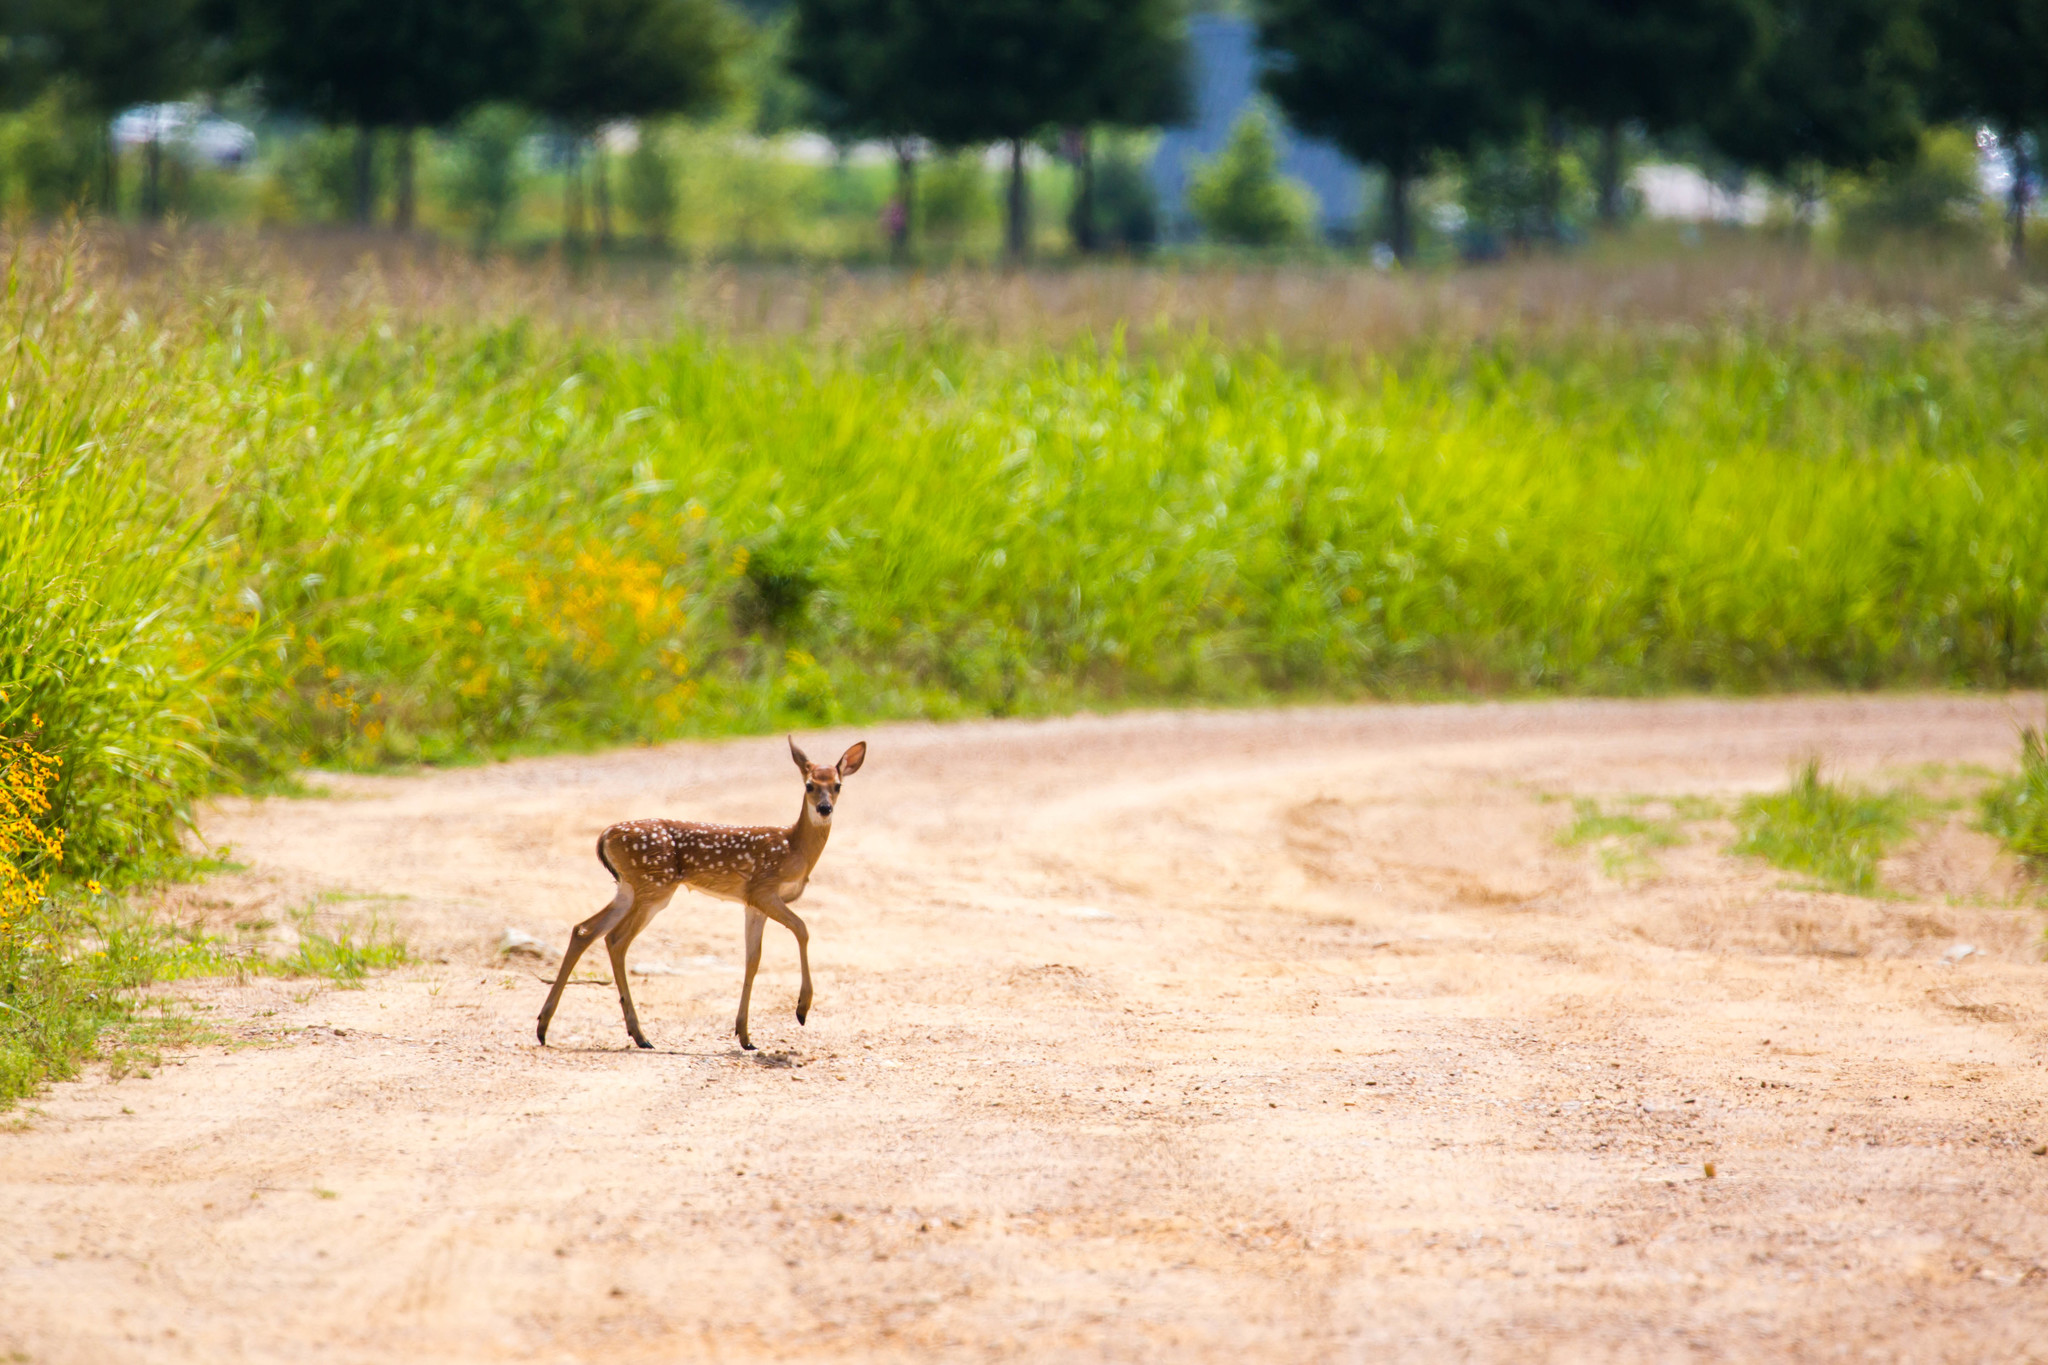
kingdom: Animalia
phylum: Chordata
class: Mammalia
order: Artiodactyla
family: Cervidae
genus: Odocoileus
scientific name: Odocoileus virginianus
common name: White-tailed deer
